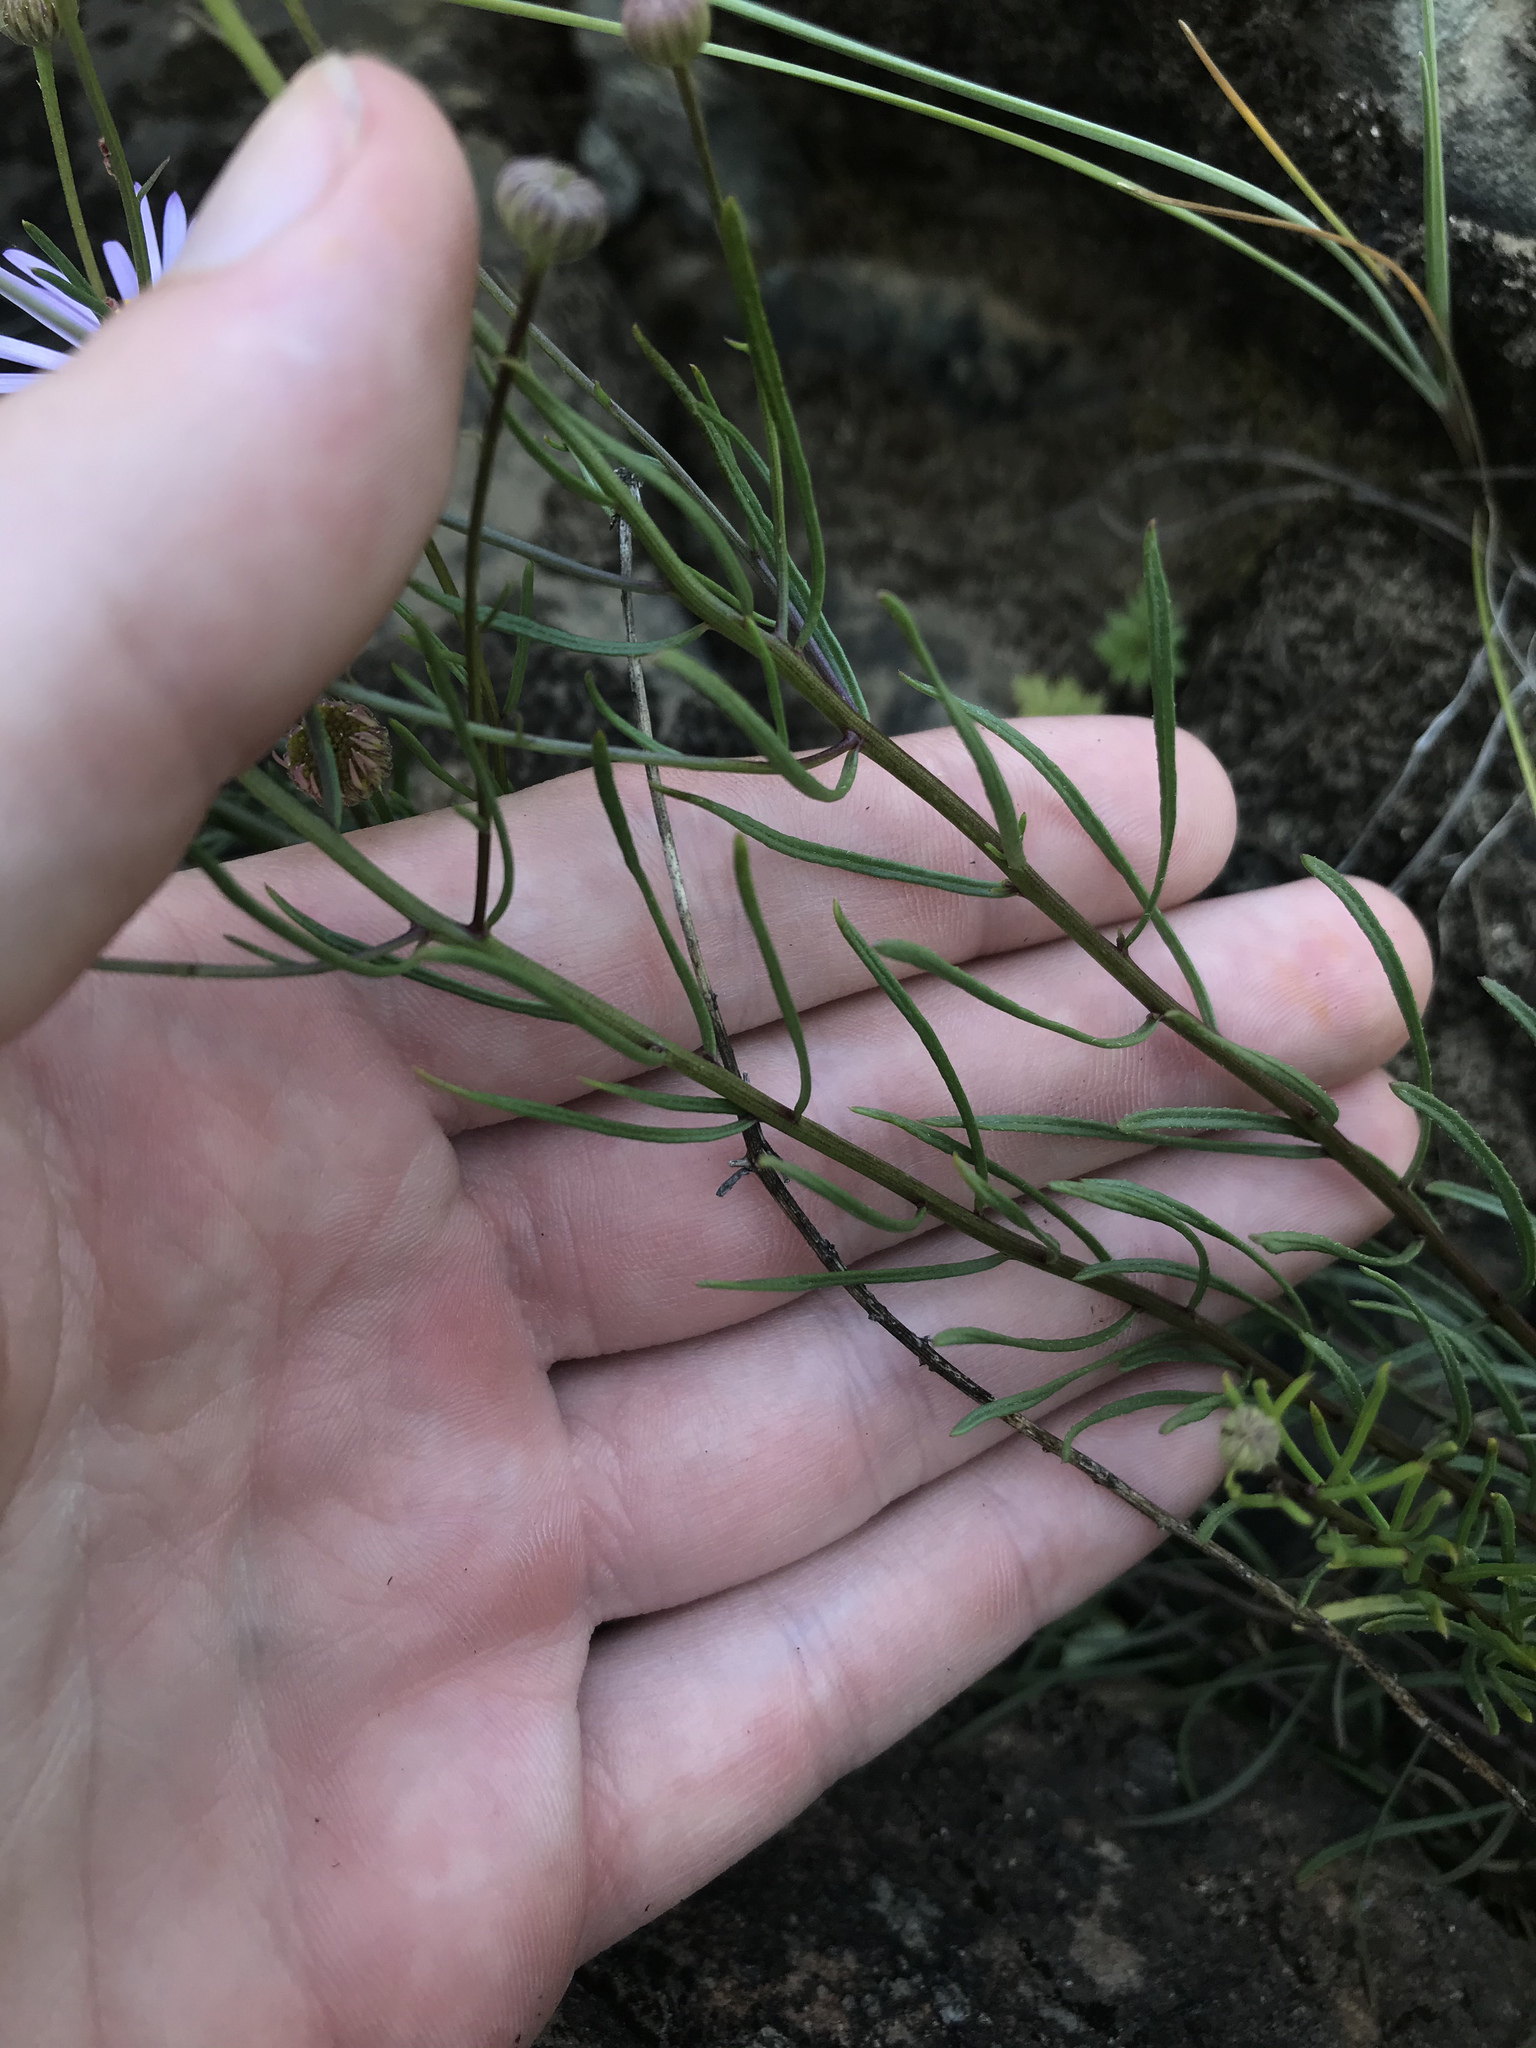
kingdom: Plantae
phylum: Tracheophyta
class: Magnoliopsida
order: Asterales
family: Asteraceae
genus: Erigeron
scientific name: Erigeron foliosus
